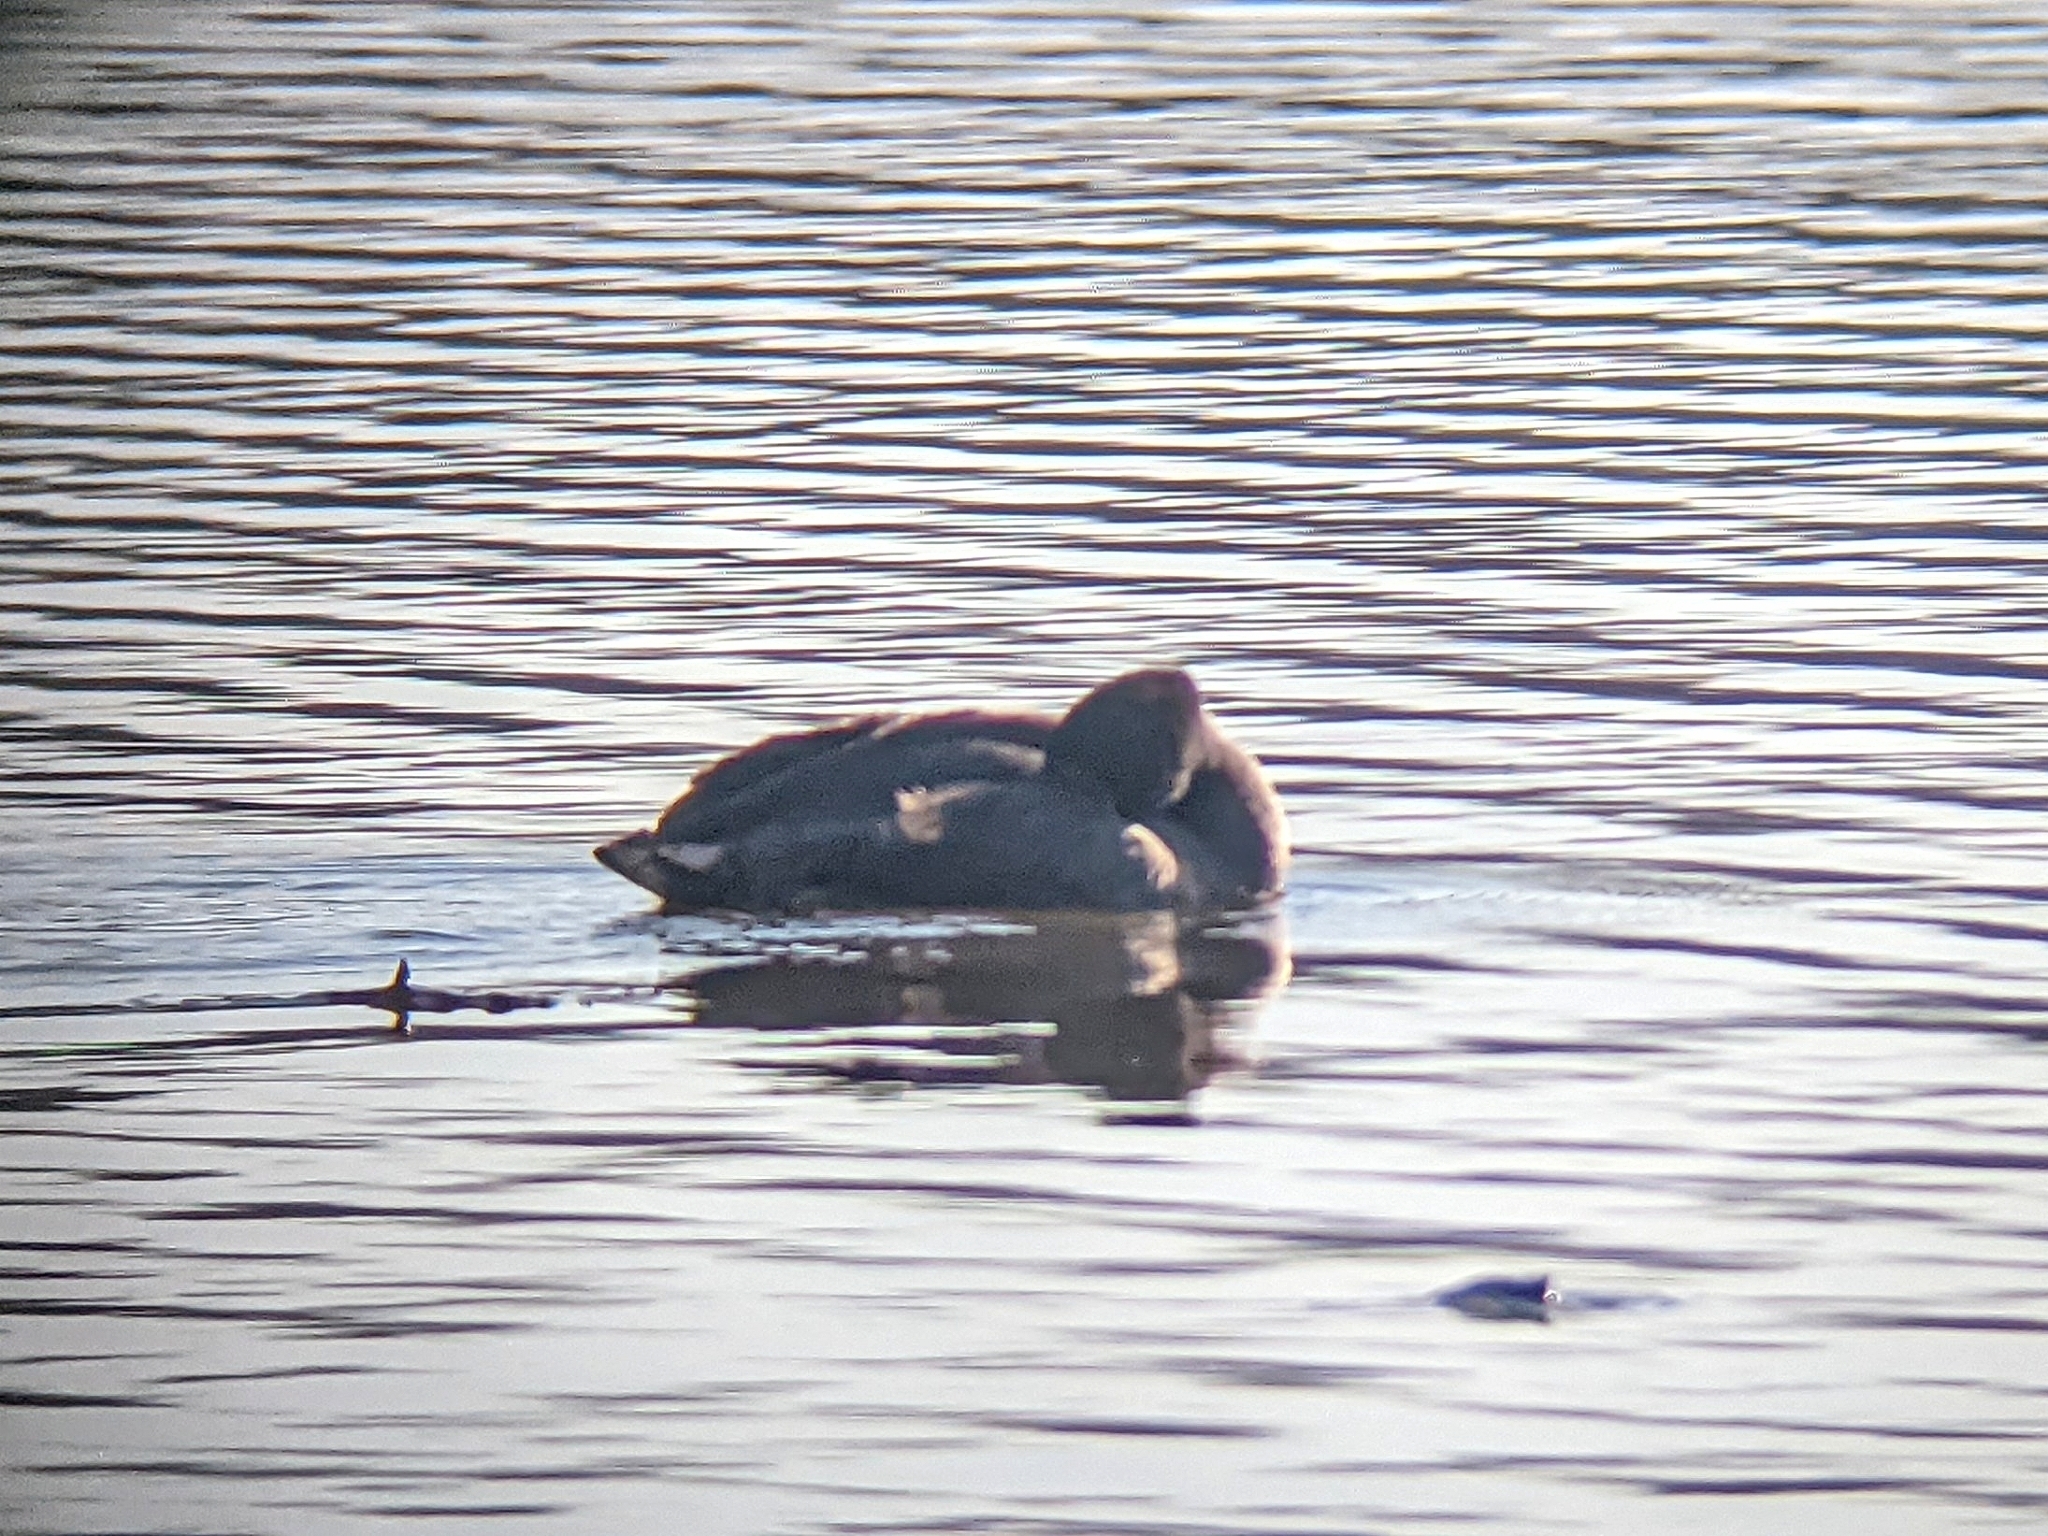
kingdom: Animalia
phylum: Chordata
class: Aves
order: Gruiformes
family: Rallidae
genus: Fulica
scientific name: Fulica americana
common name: American coot
